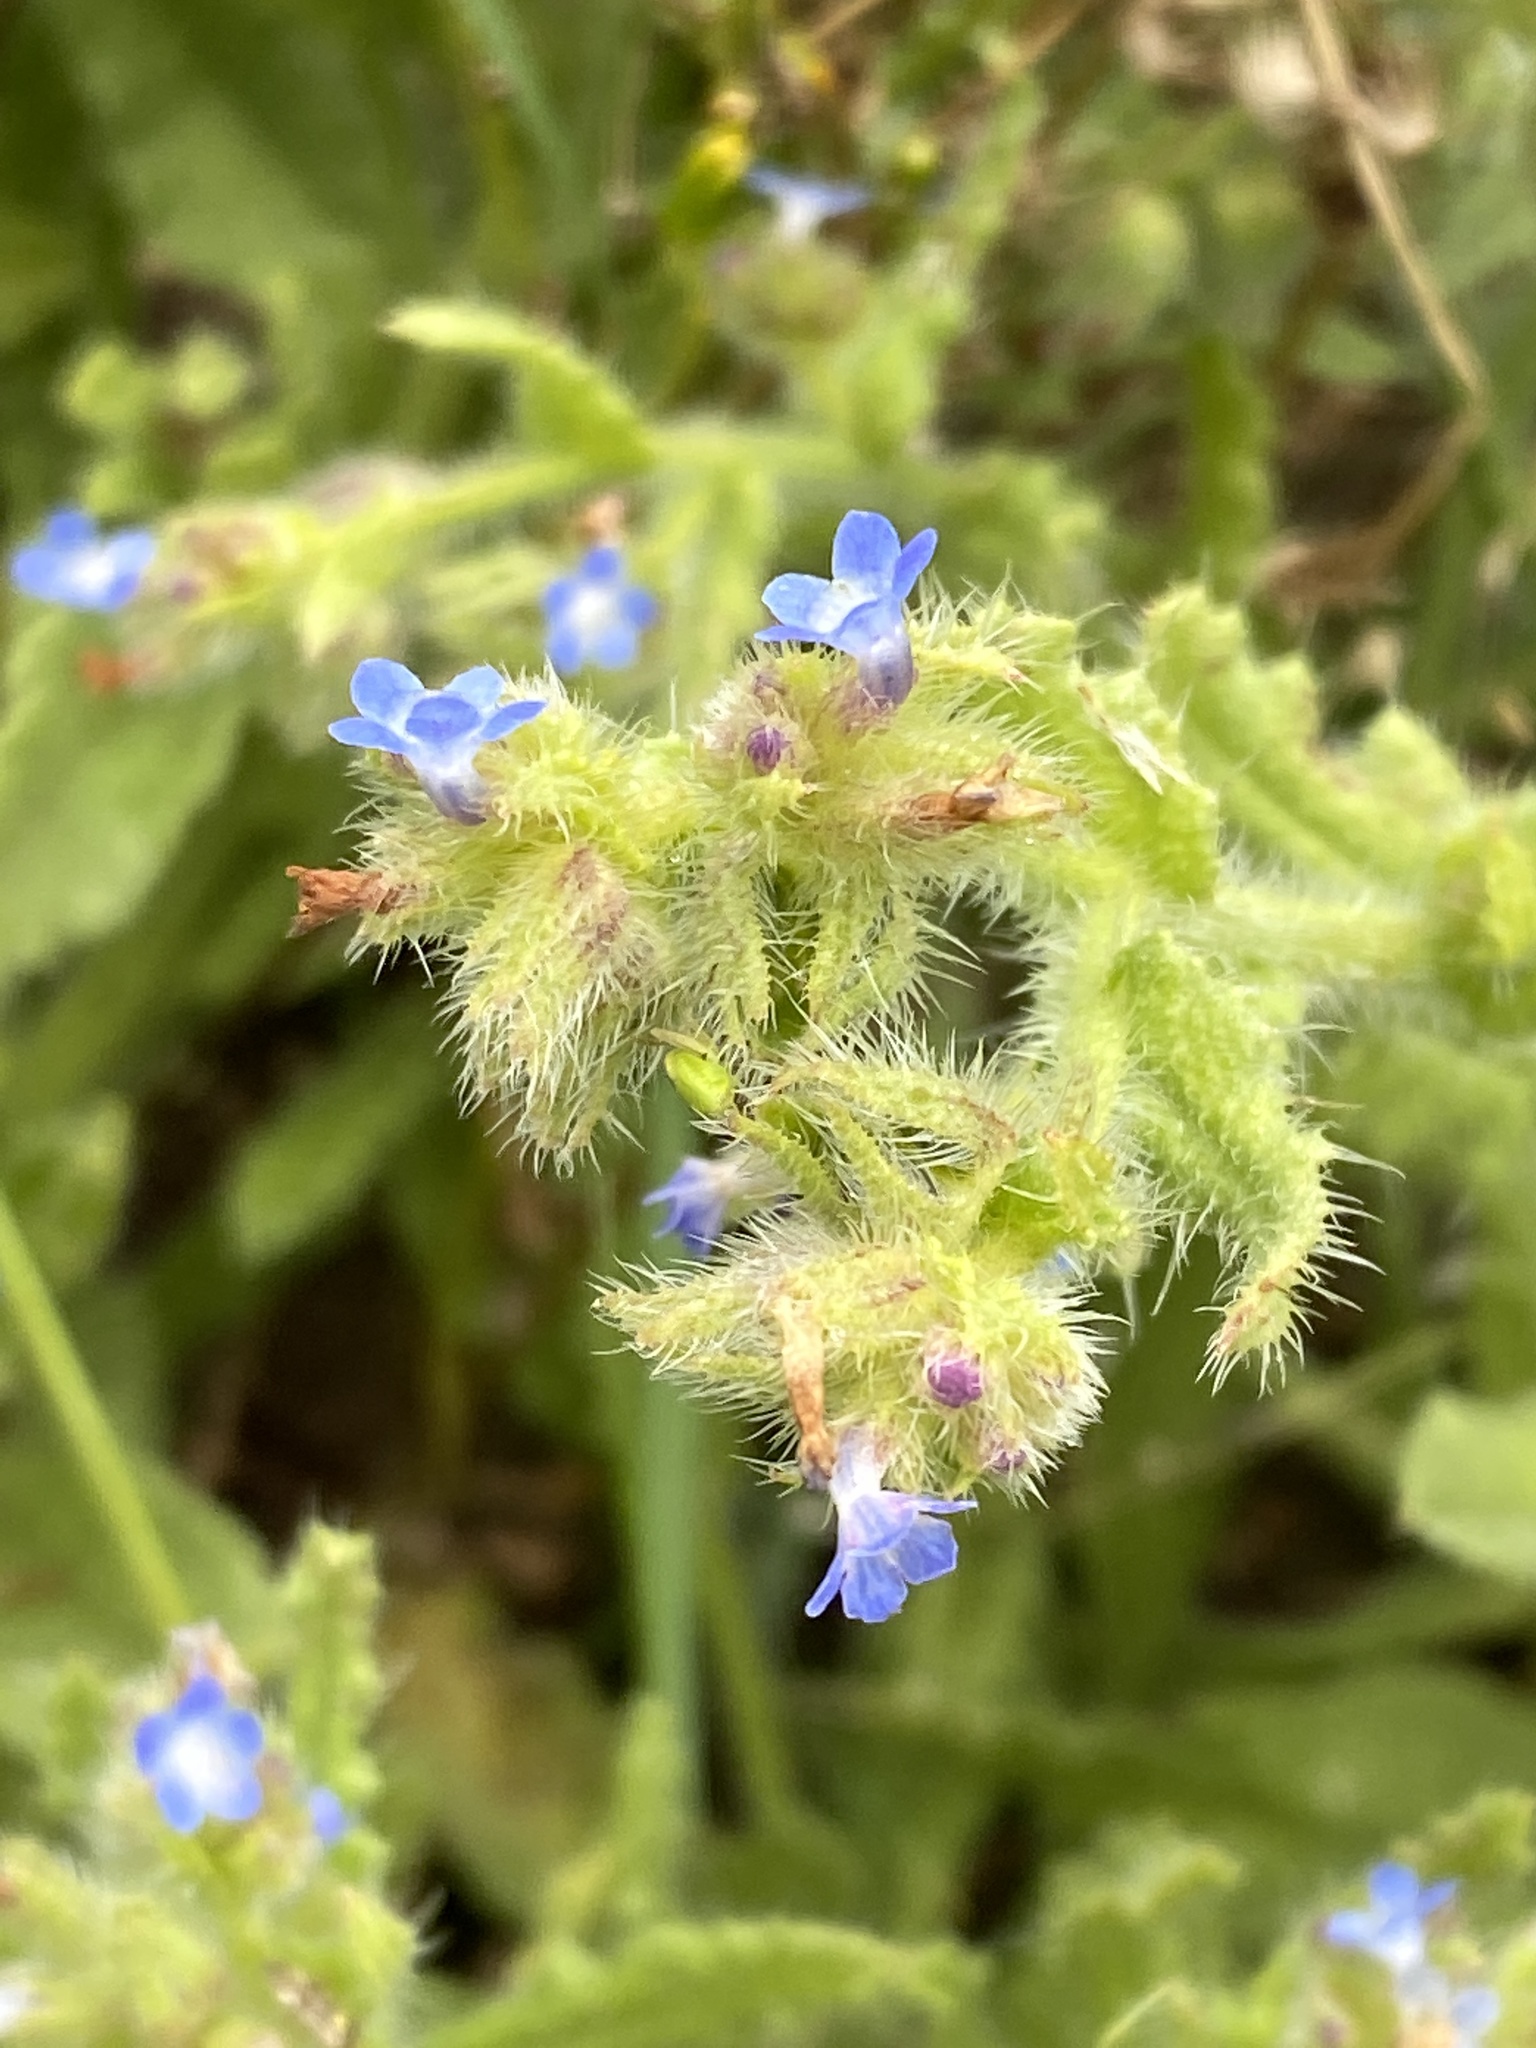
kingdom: Plantae
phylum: Tracheophyta
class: Magnoliopsida
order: Boraginales
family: Boraginaceae
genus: Lycopsis
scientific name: Lycopsis arvensis
